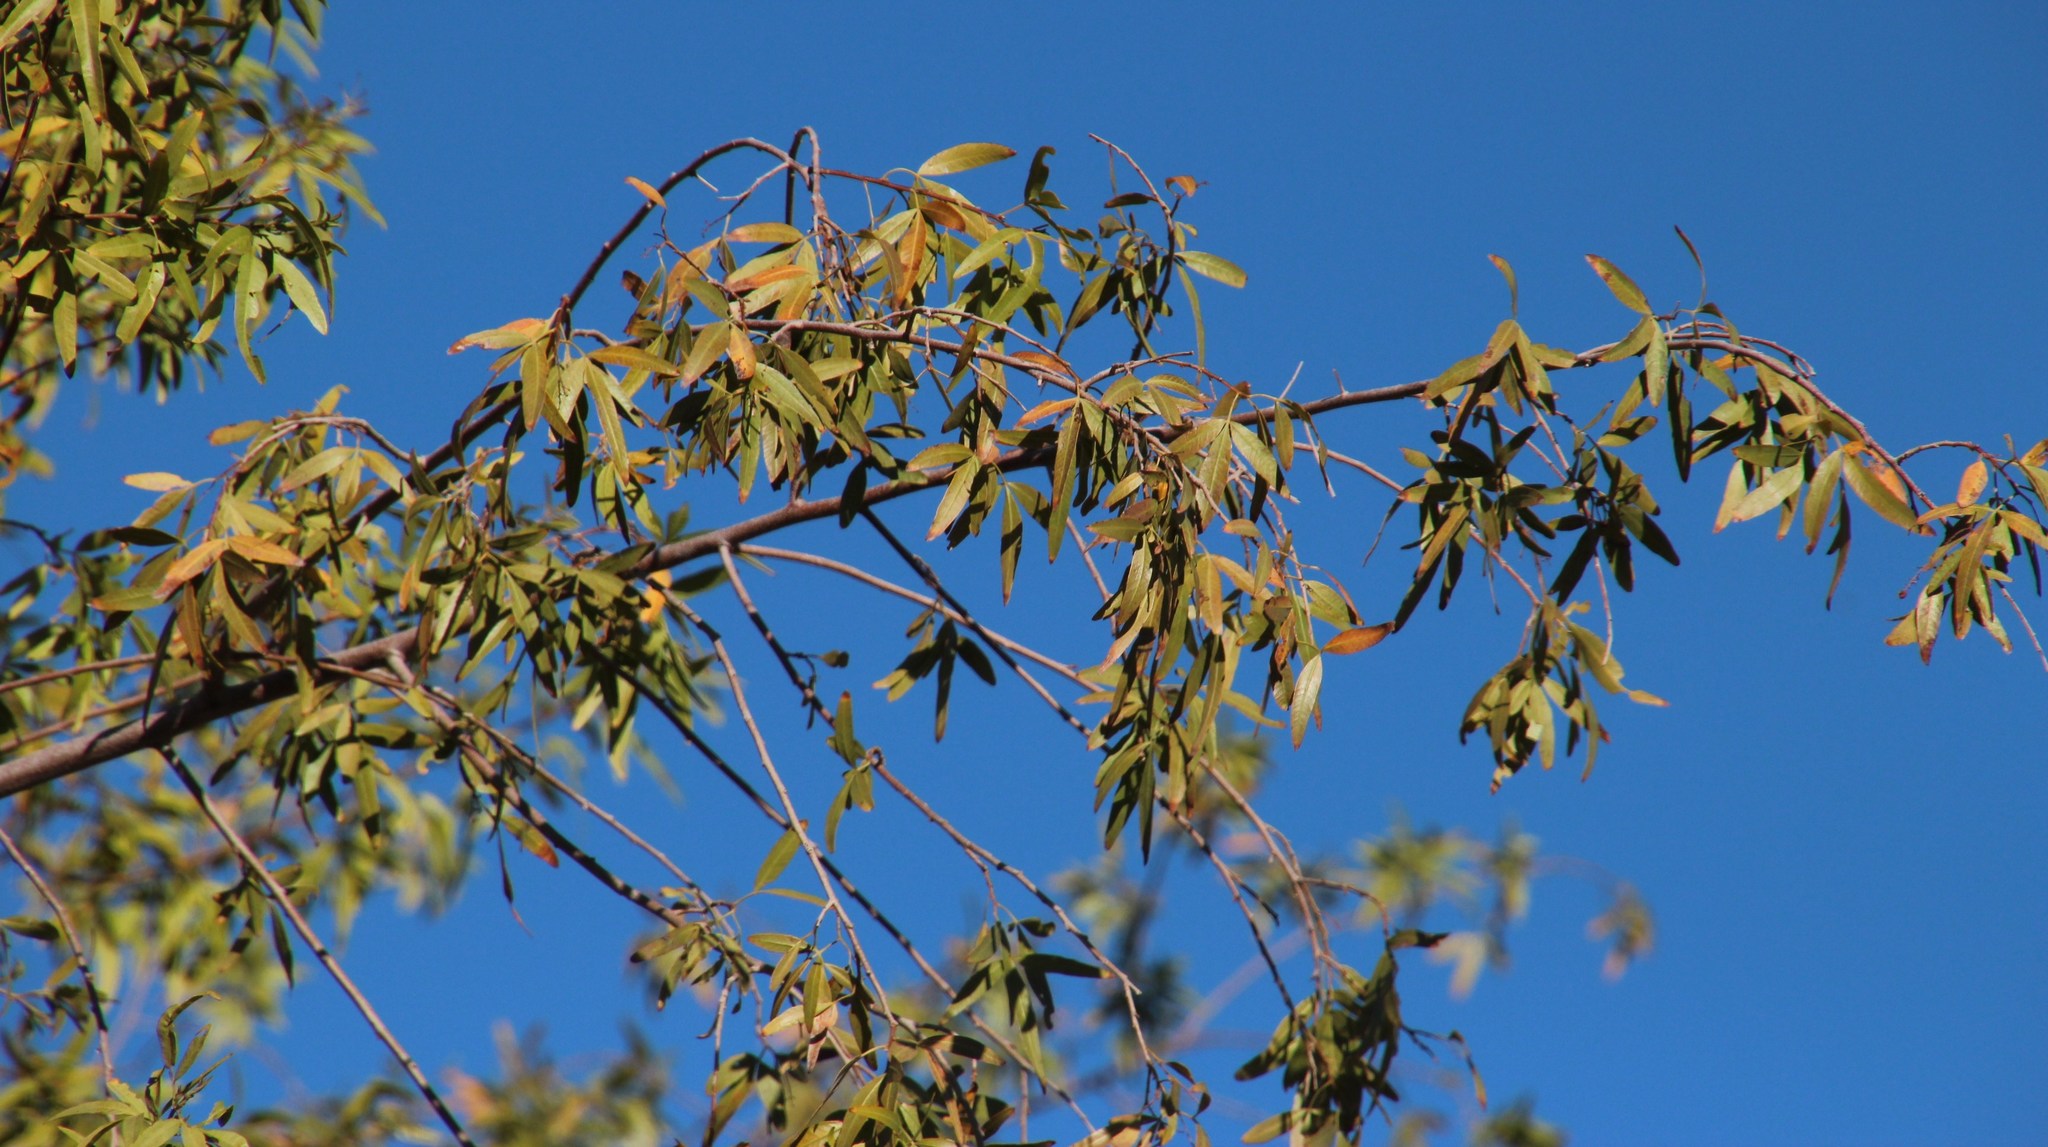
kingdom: Plantae
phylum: Tracheophyta
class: Magnoliopsida
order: Sapindales
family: Anacardiaceae
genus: Searsia
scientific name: Searsia pendulina
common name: White karee
